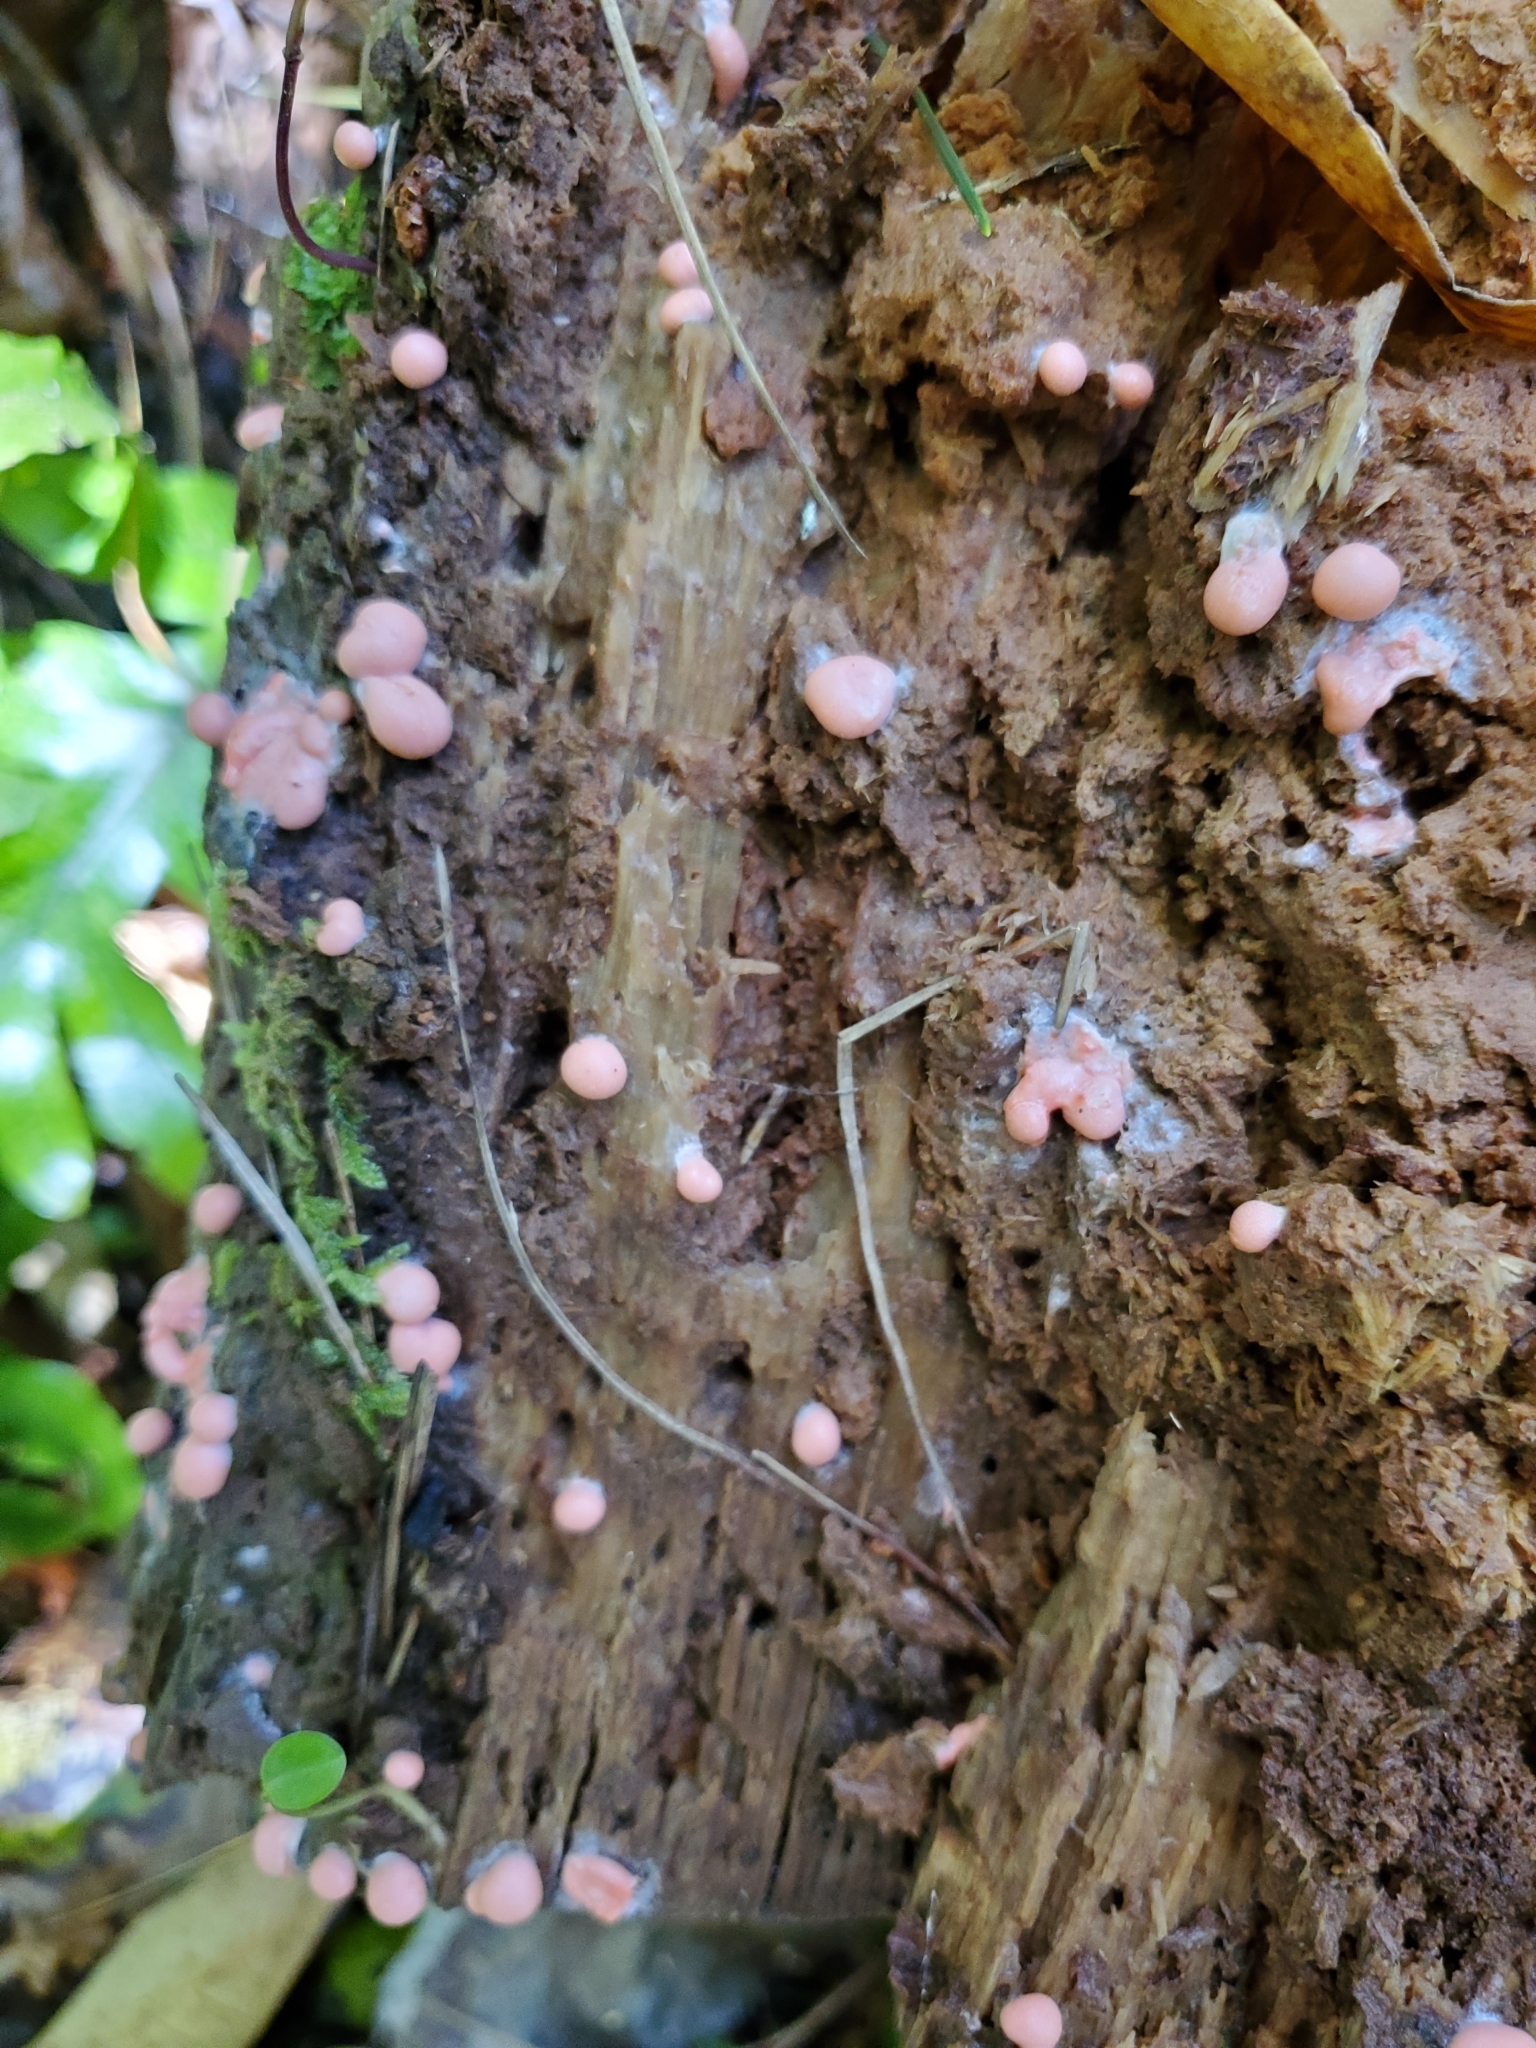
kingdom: Protozoa
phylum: Mycetozoa
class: Myxomycetes
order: Cribrariales
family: Tubiferaceae
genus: Lycogala
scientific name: Lycogala epidendrum
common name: Wolf's milk
